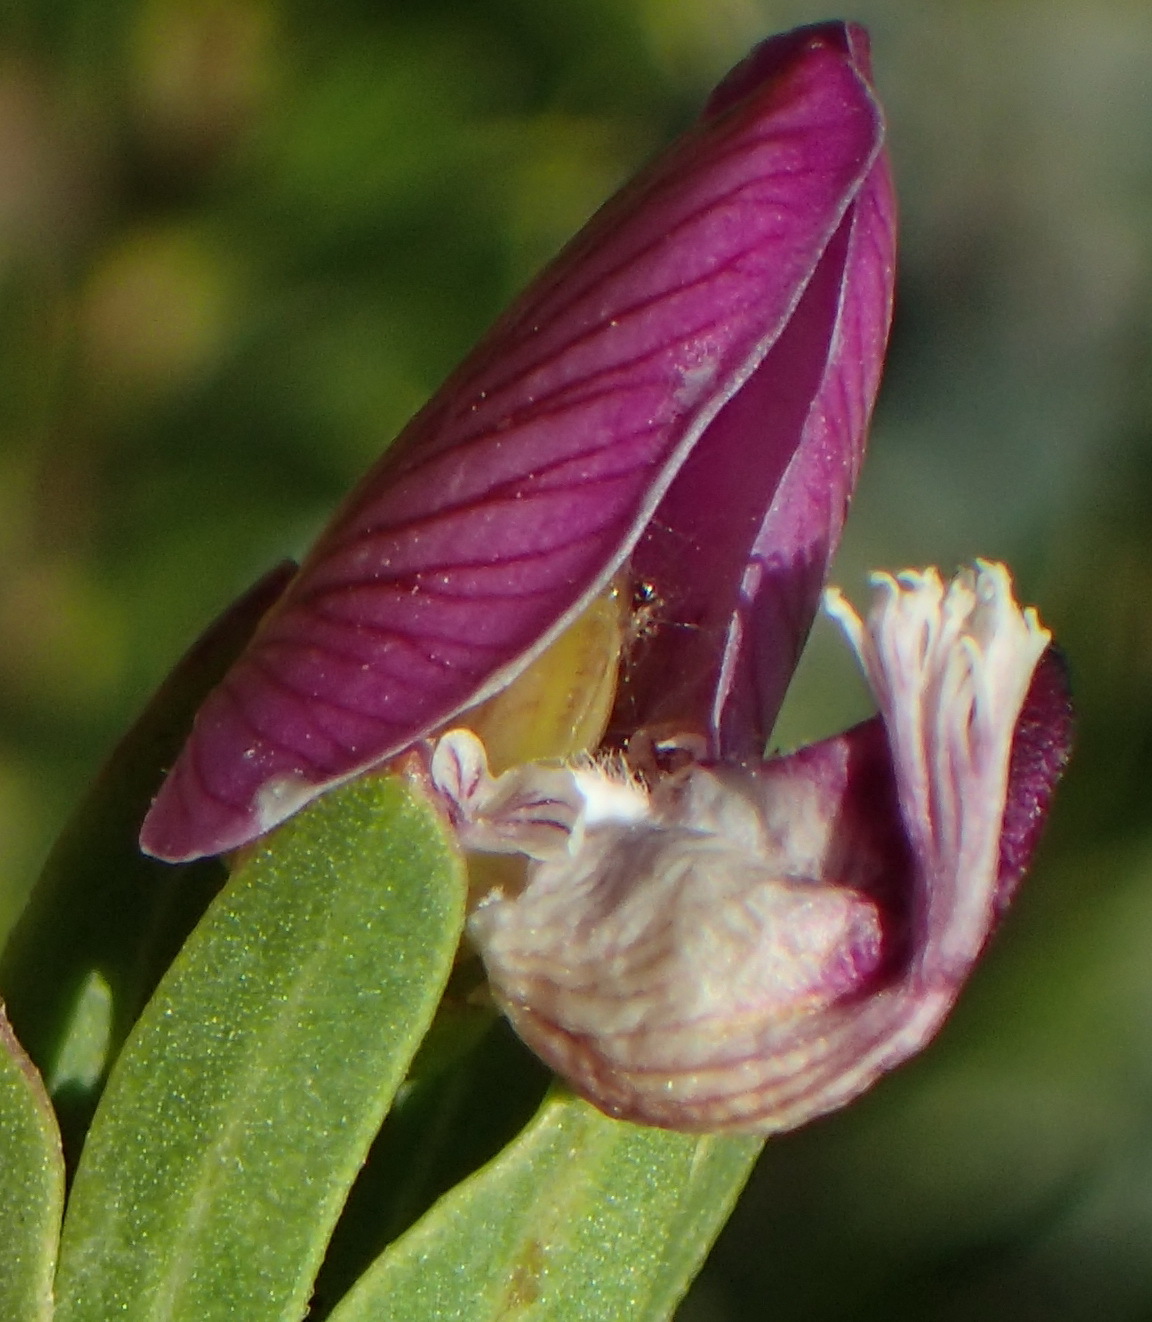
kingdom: Plantae
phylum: Tracheophyta
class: Magnoliopsida
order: Fabales
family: Polygalaceae
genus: Polygala
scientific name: Polygala myrtifolia
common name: Myrtle-leaf milkwort
